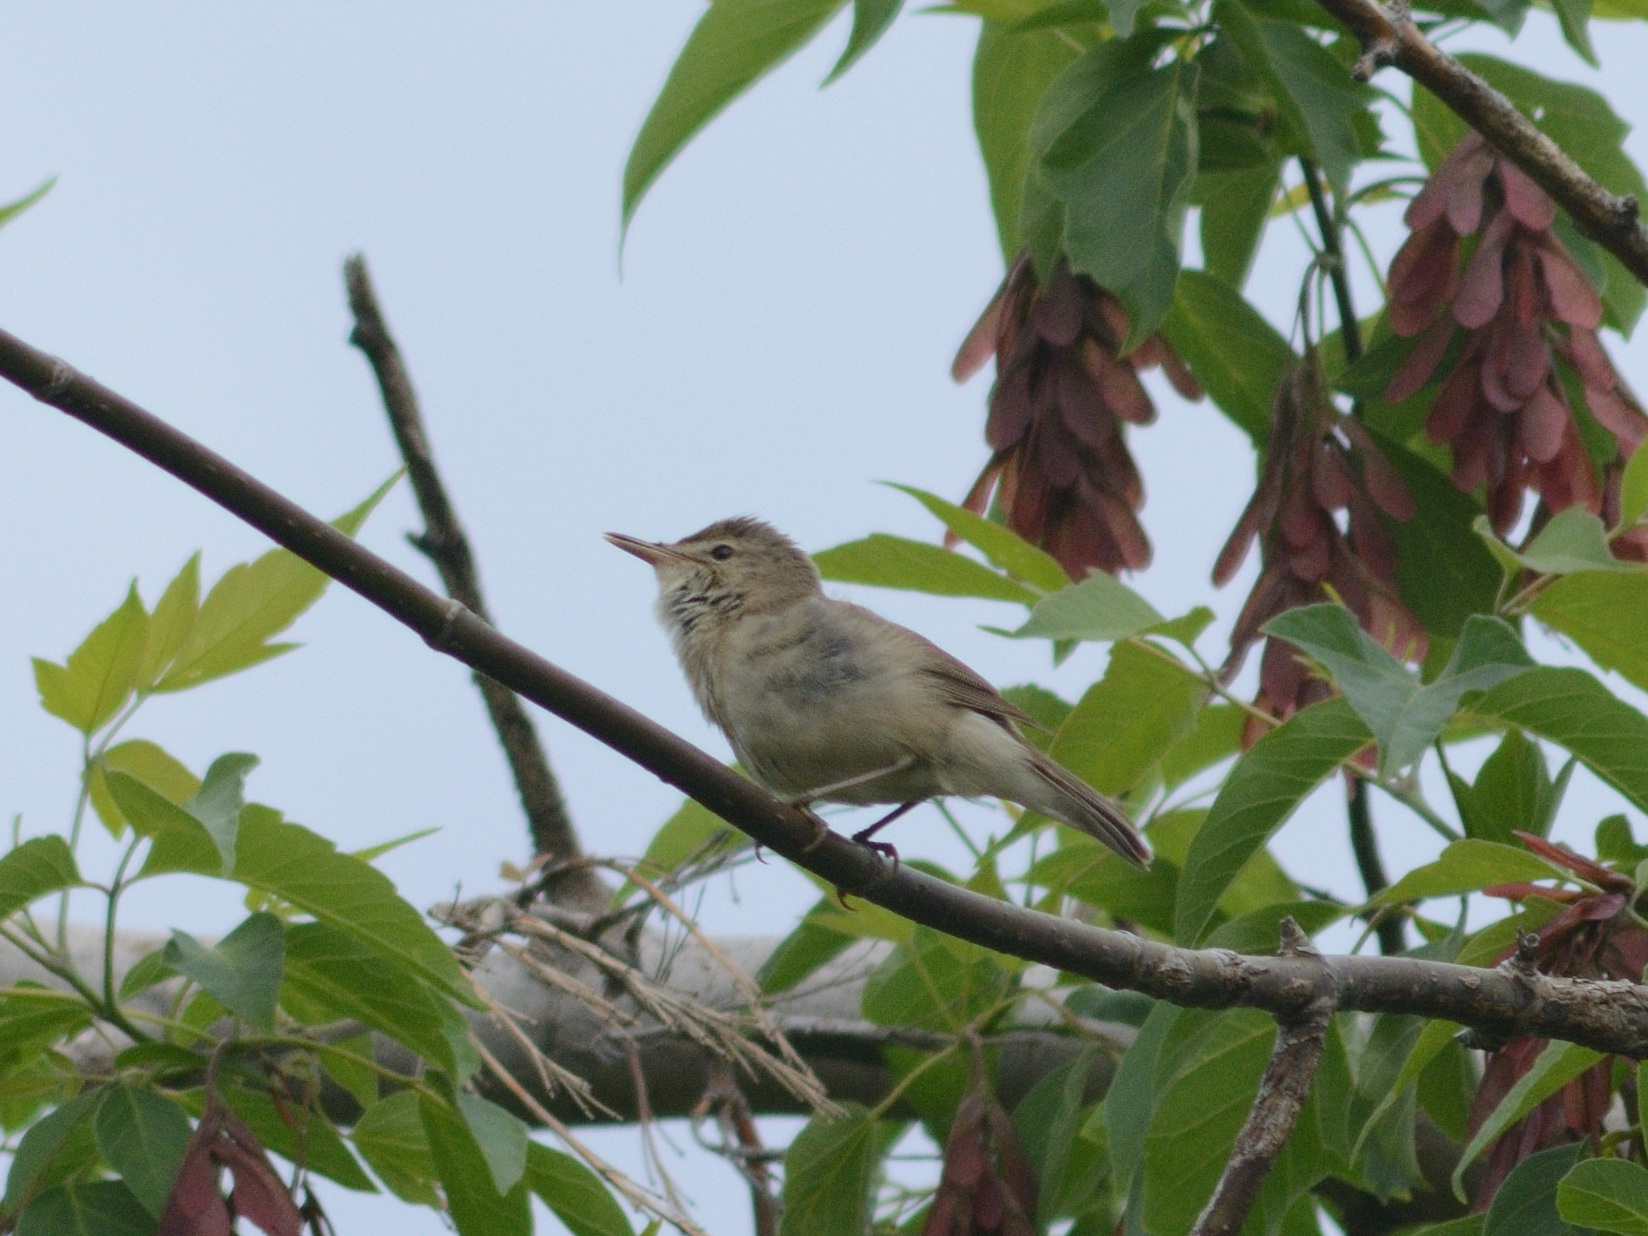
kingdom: Animalia
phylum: Chordata
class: Aves
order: Passeriformes
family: Acrocephalidae
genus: Acrocephalus
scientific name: Acrocephalus dumetorum
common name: Blyth's reed warbler
